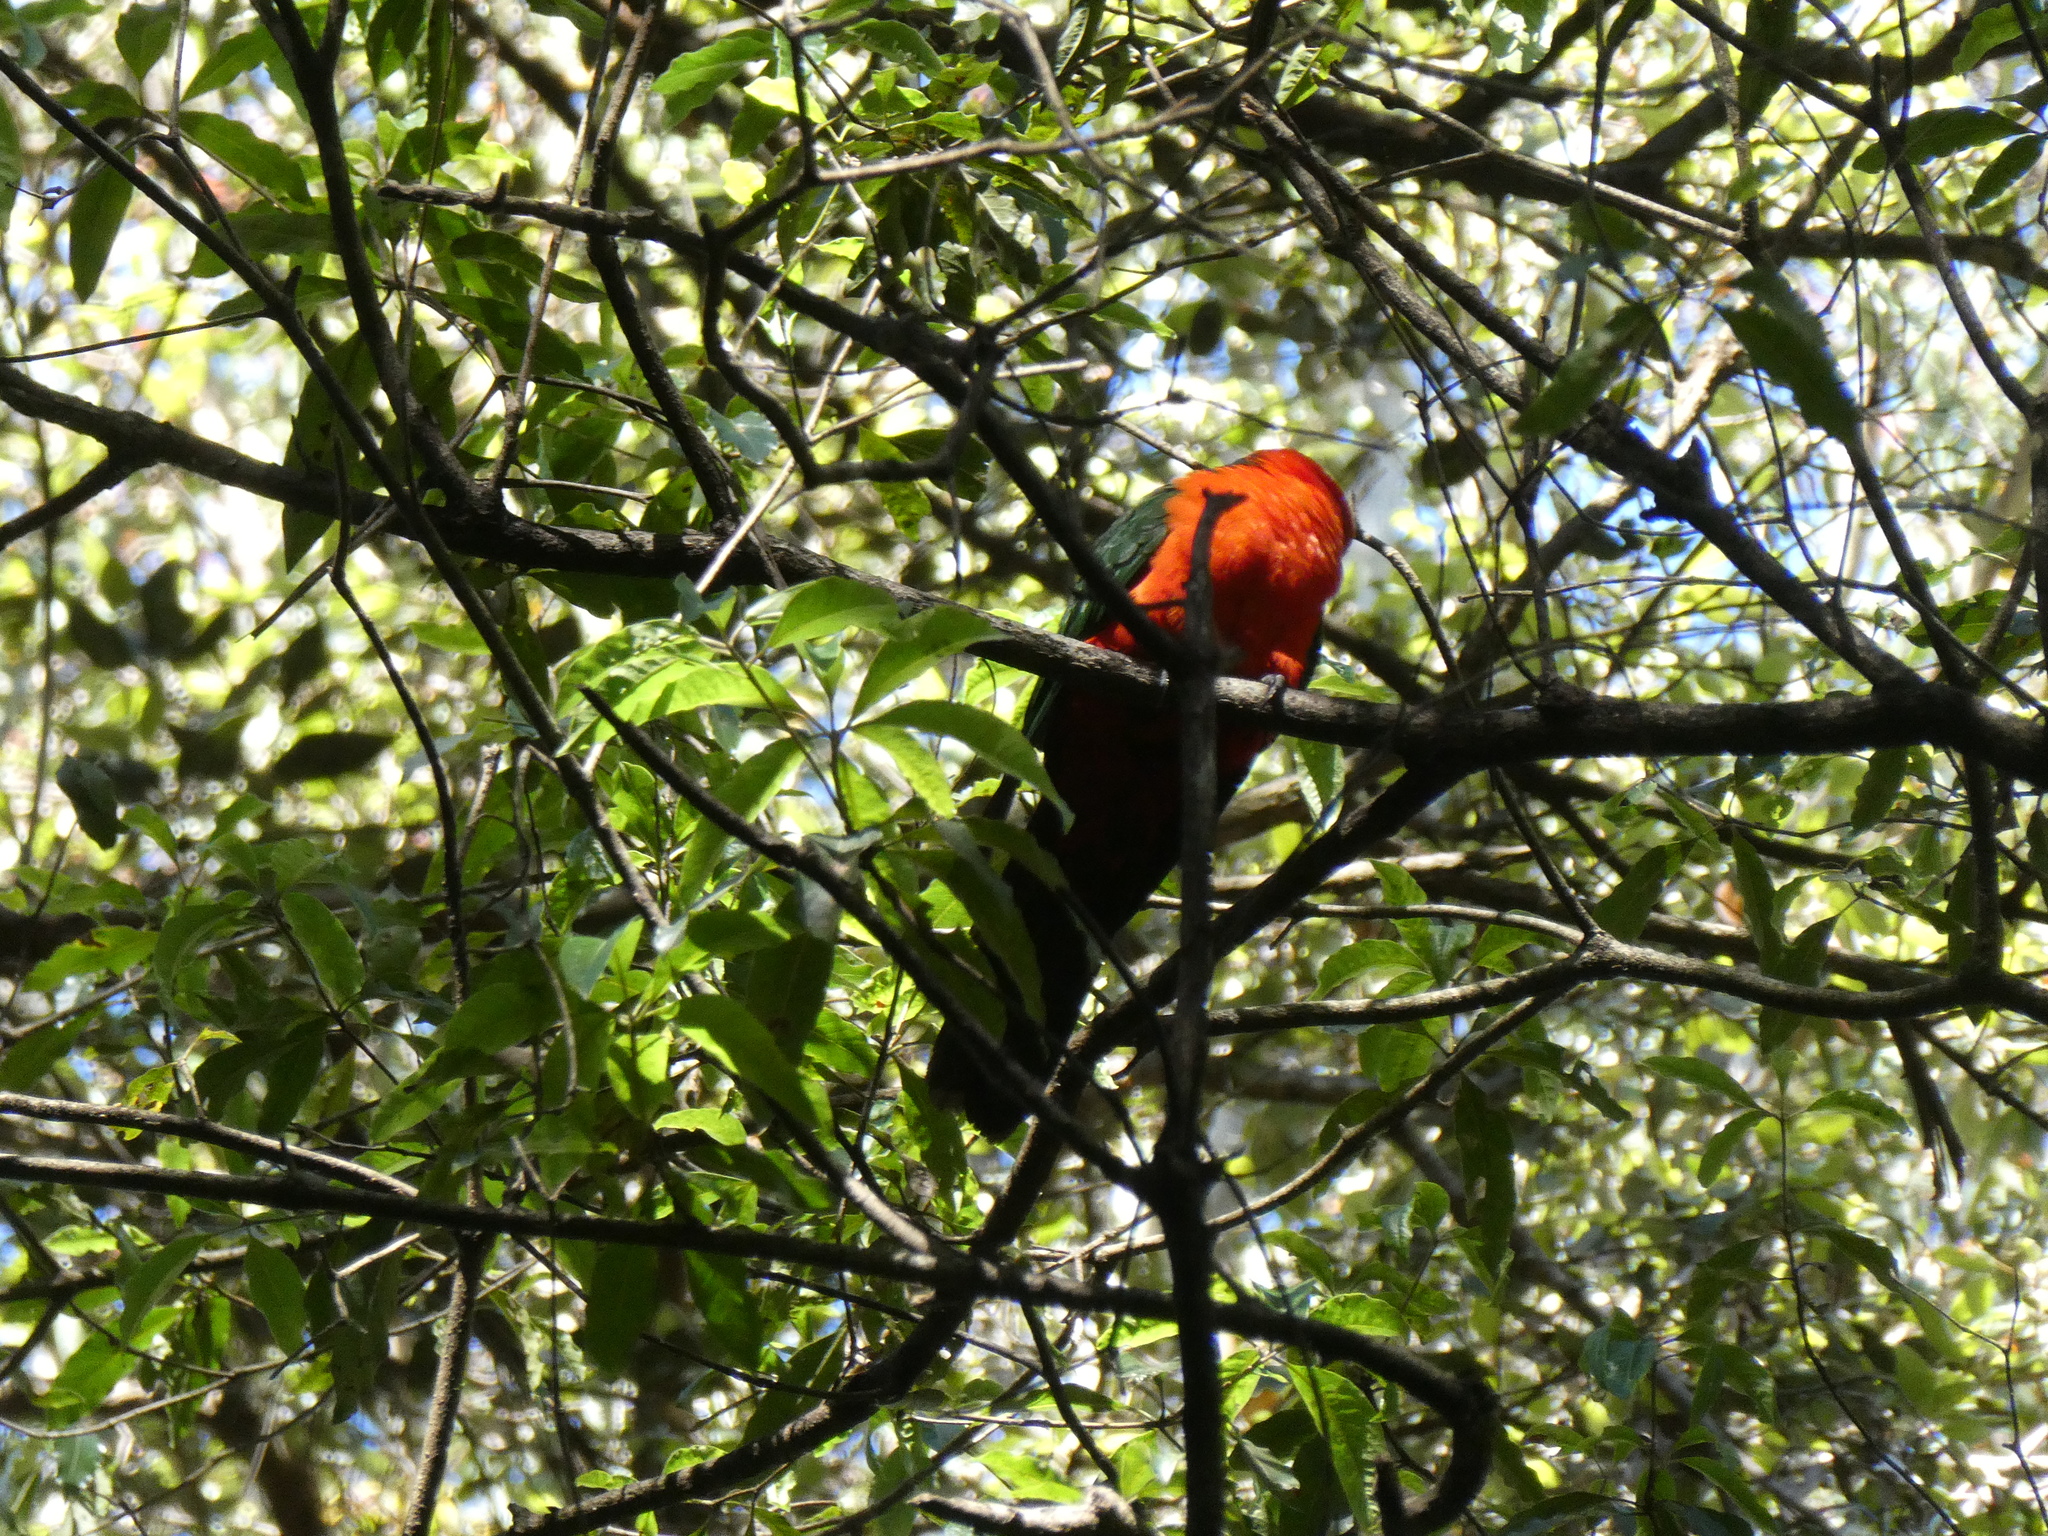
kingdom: Animalia
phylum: Chordata
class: Aves
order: Psittaciformes
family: Psittacidae
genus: Alisterus
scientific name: Alisterus scapularis
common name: Australian king parrot
